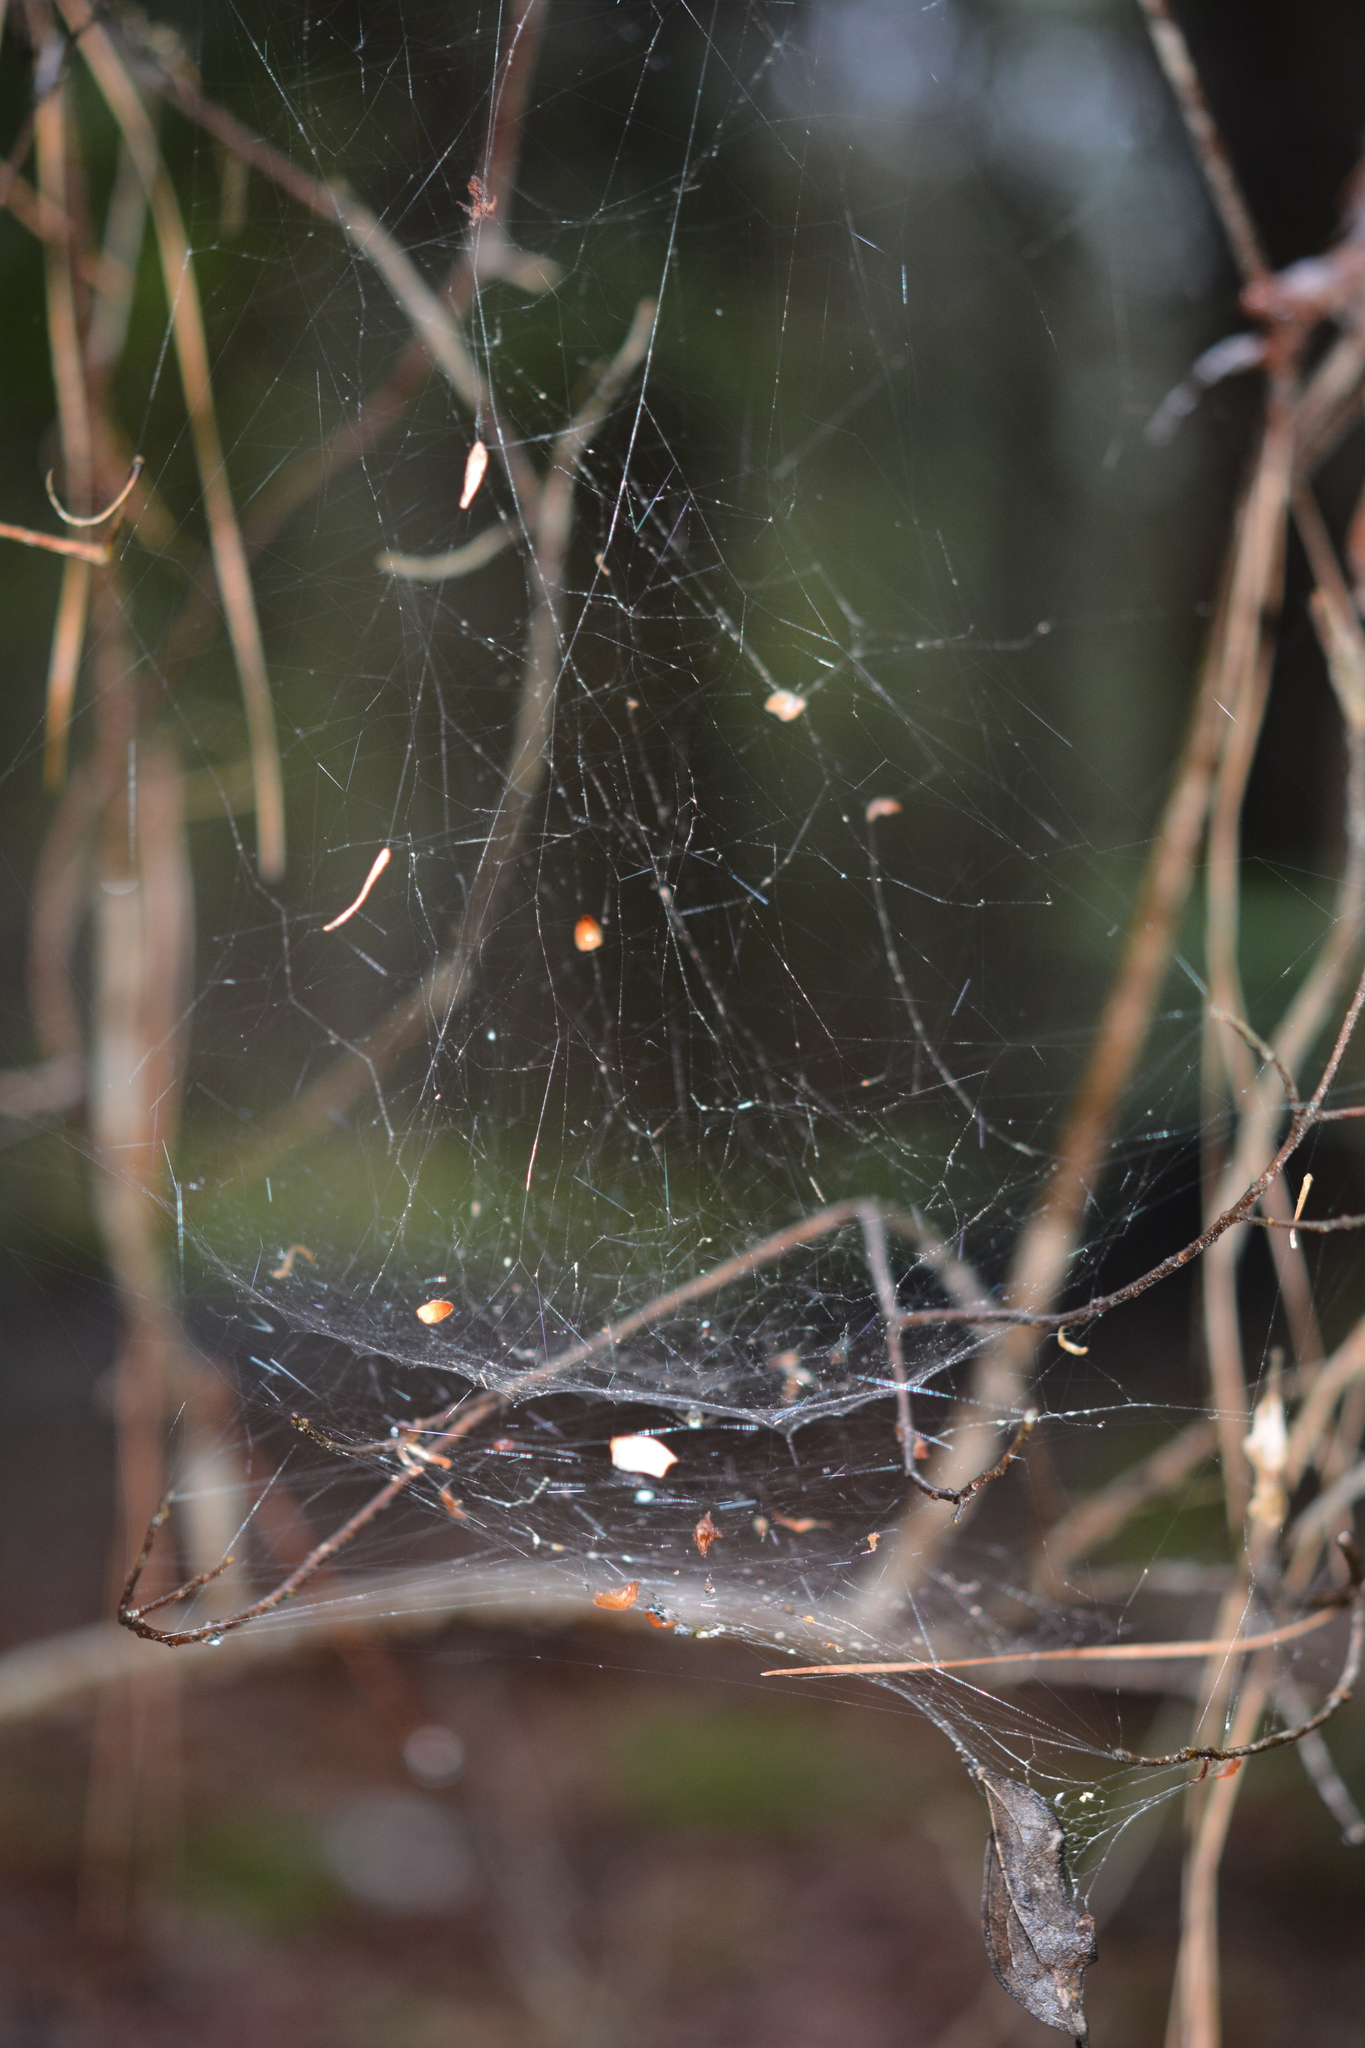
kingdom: Animalia
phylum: Arthropoda
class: Arachnida
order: Araneae
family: Linyphiidae
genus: Frontinella
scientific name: Frontinella pyramitela
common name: Bowl-and-doily spider
